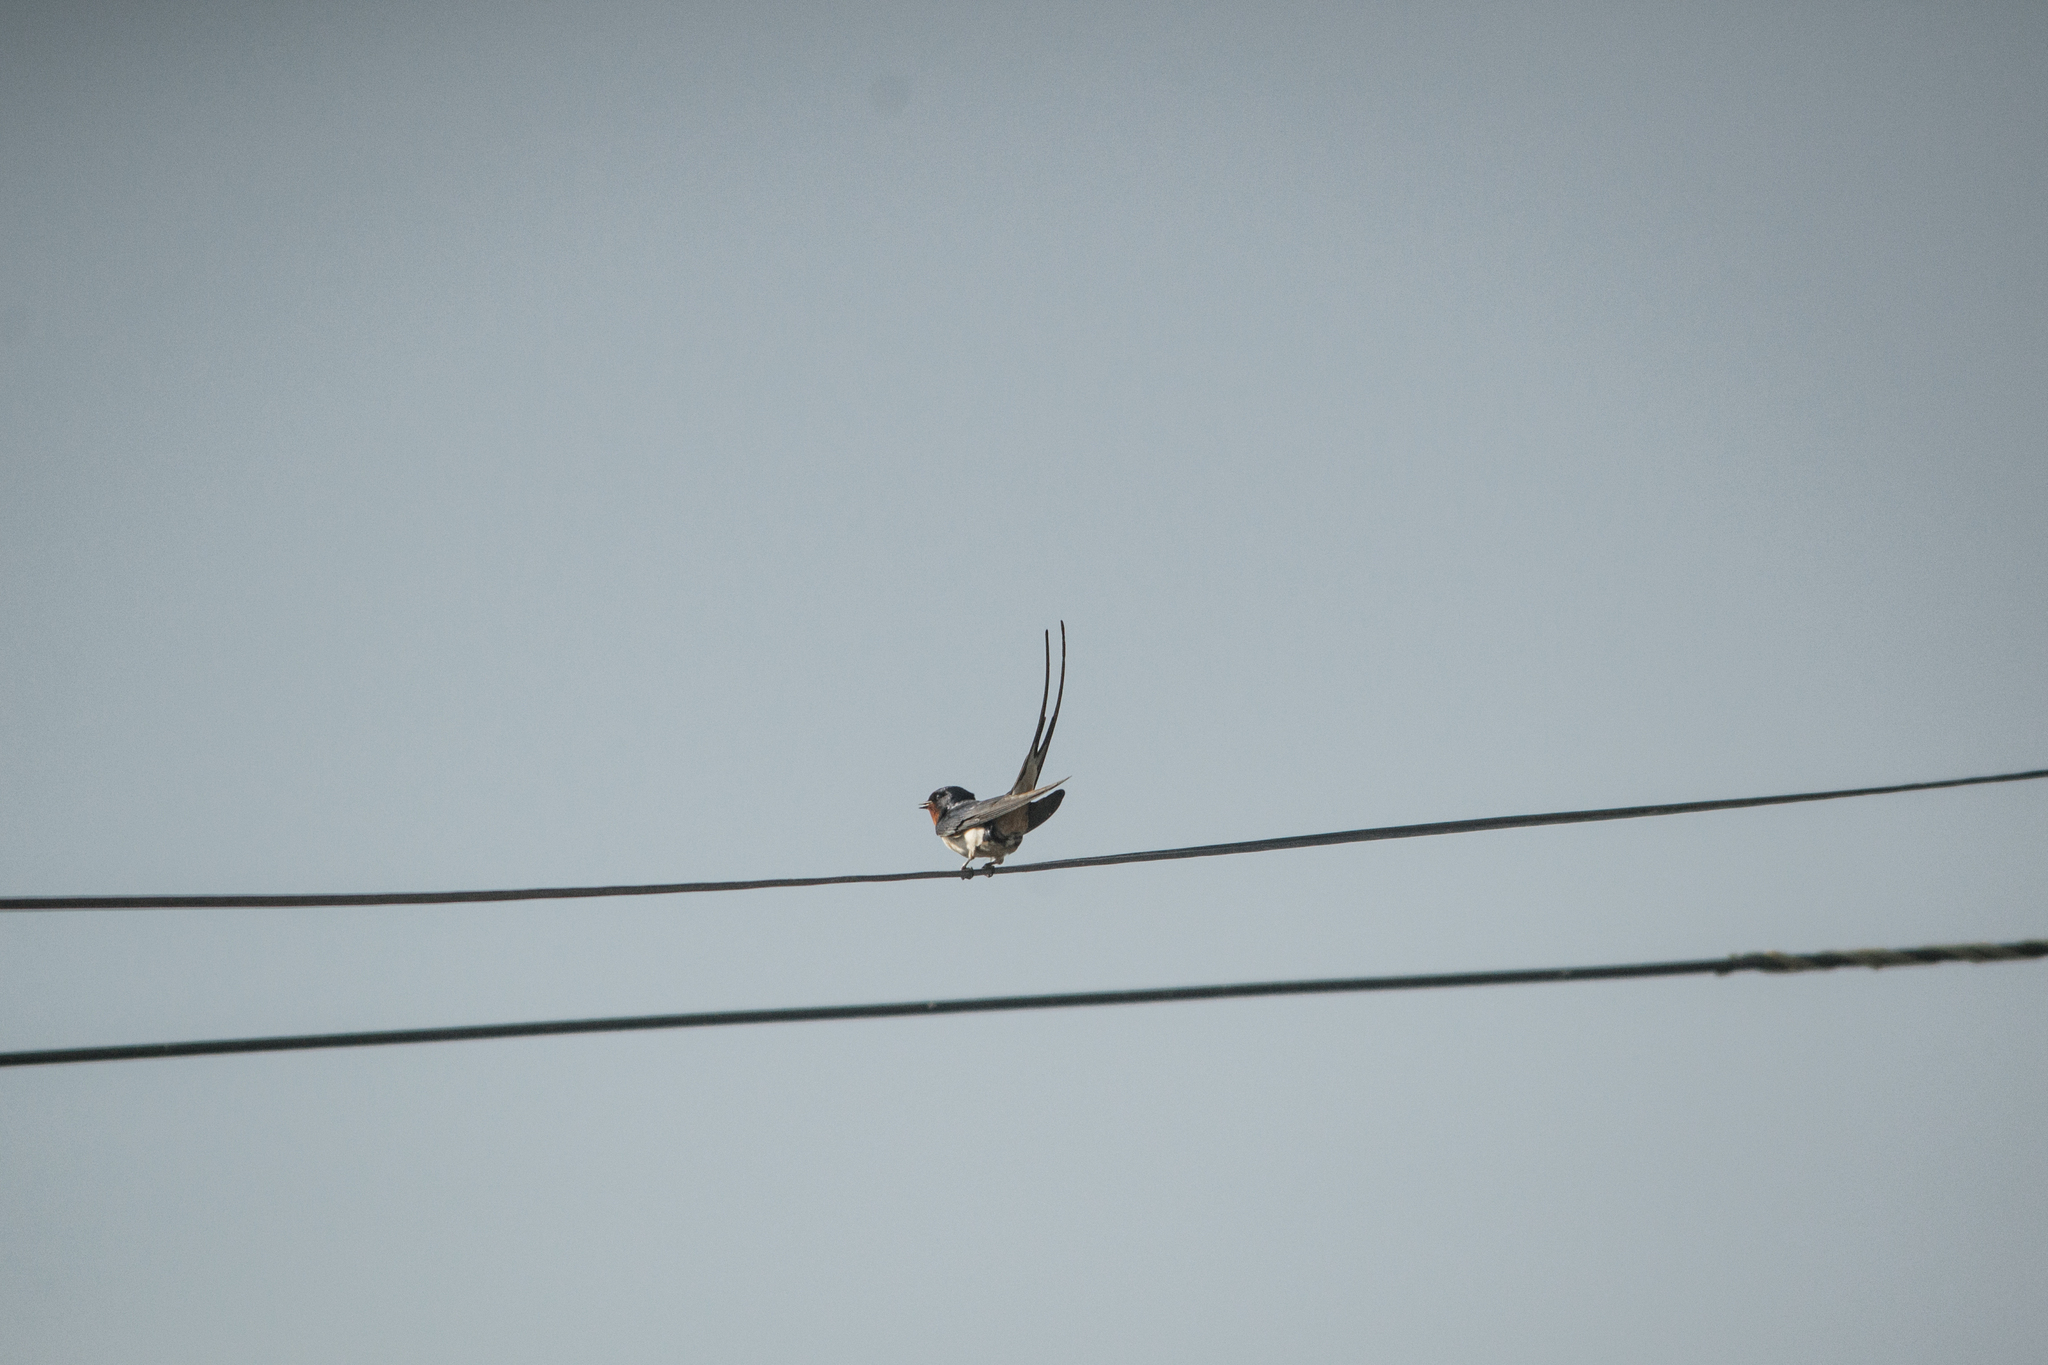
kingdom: Animalia
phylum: Chordata
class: Aves
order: Passeriformes
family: Hirundinidae
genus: Hirundo
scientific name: Hirundo rustica
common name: Barn swallow
